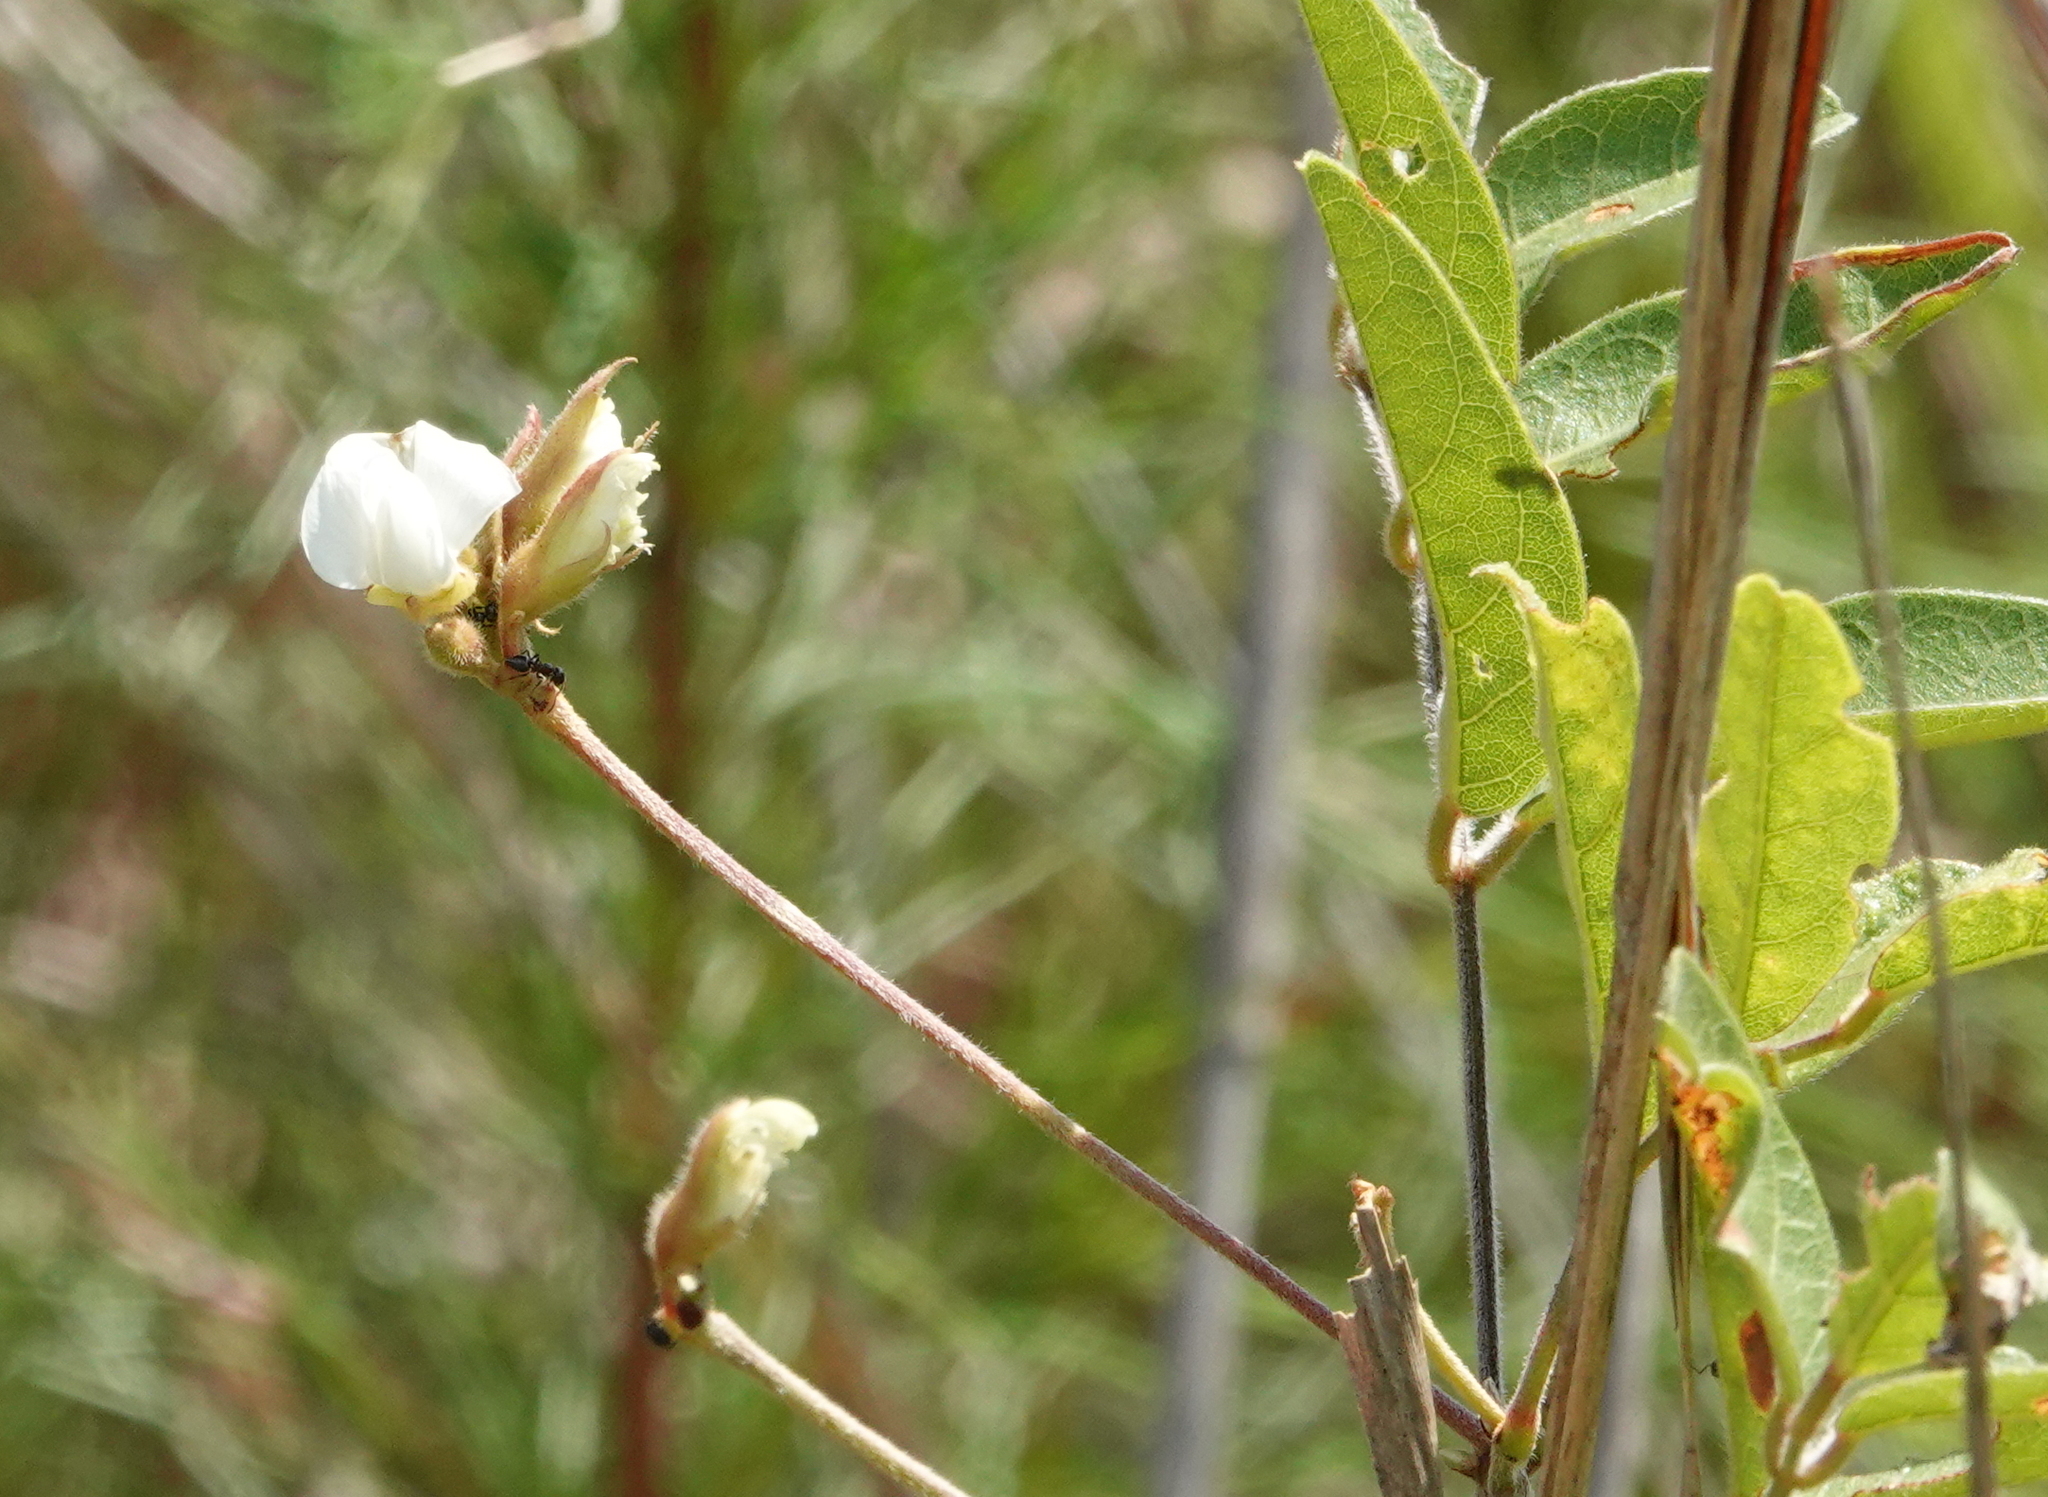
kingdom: Plantae
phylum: Tracheophyta
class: Magnoliopsida
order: Fabales
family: Fabaceae
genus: Galactia
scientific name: Galactia elliottii
